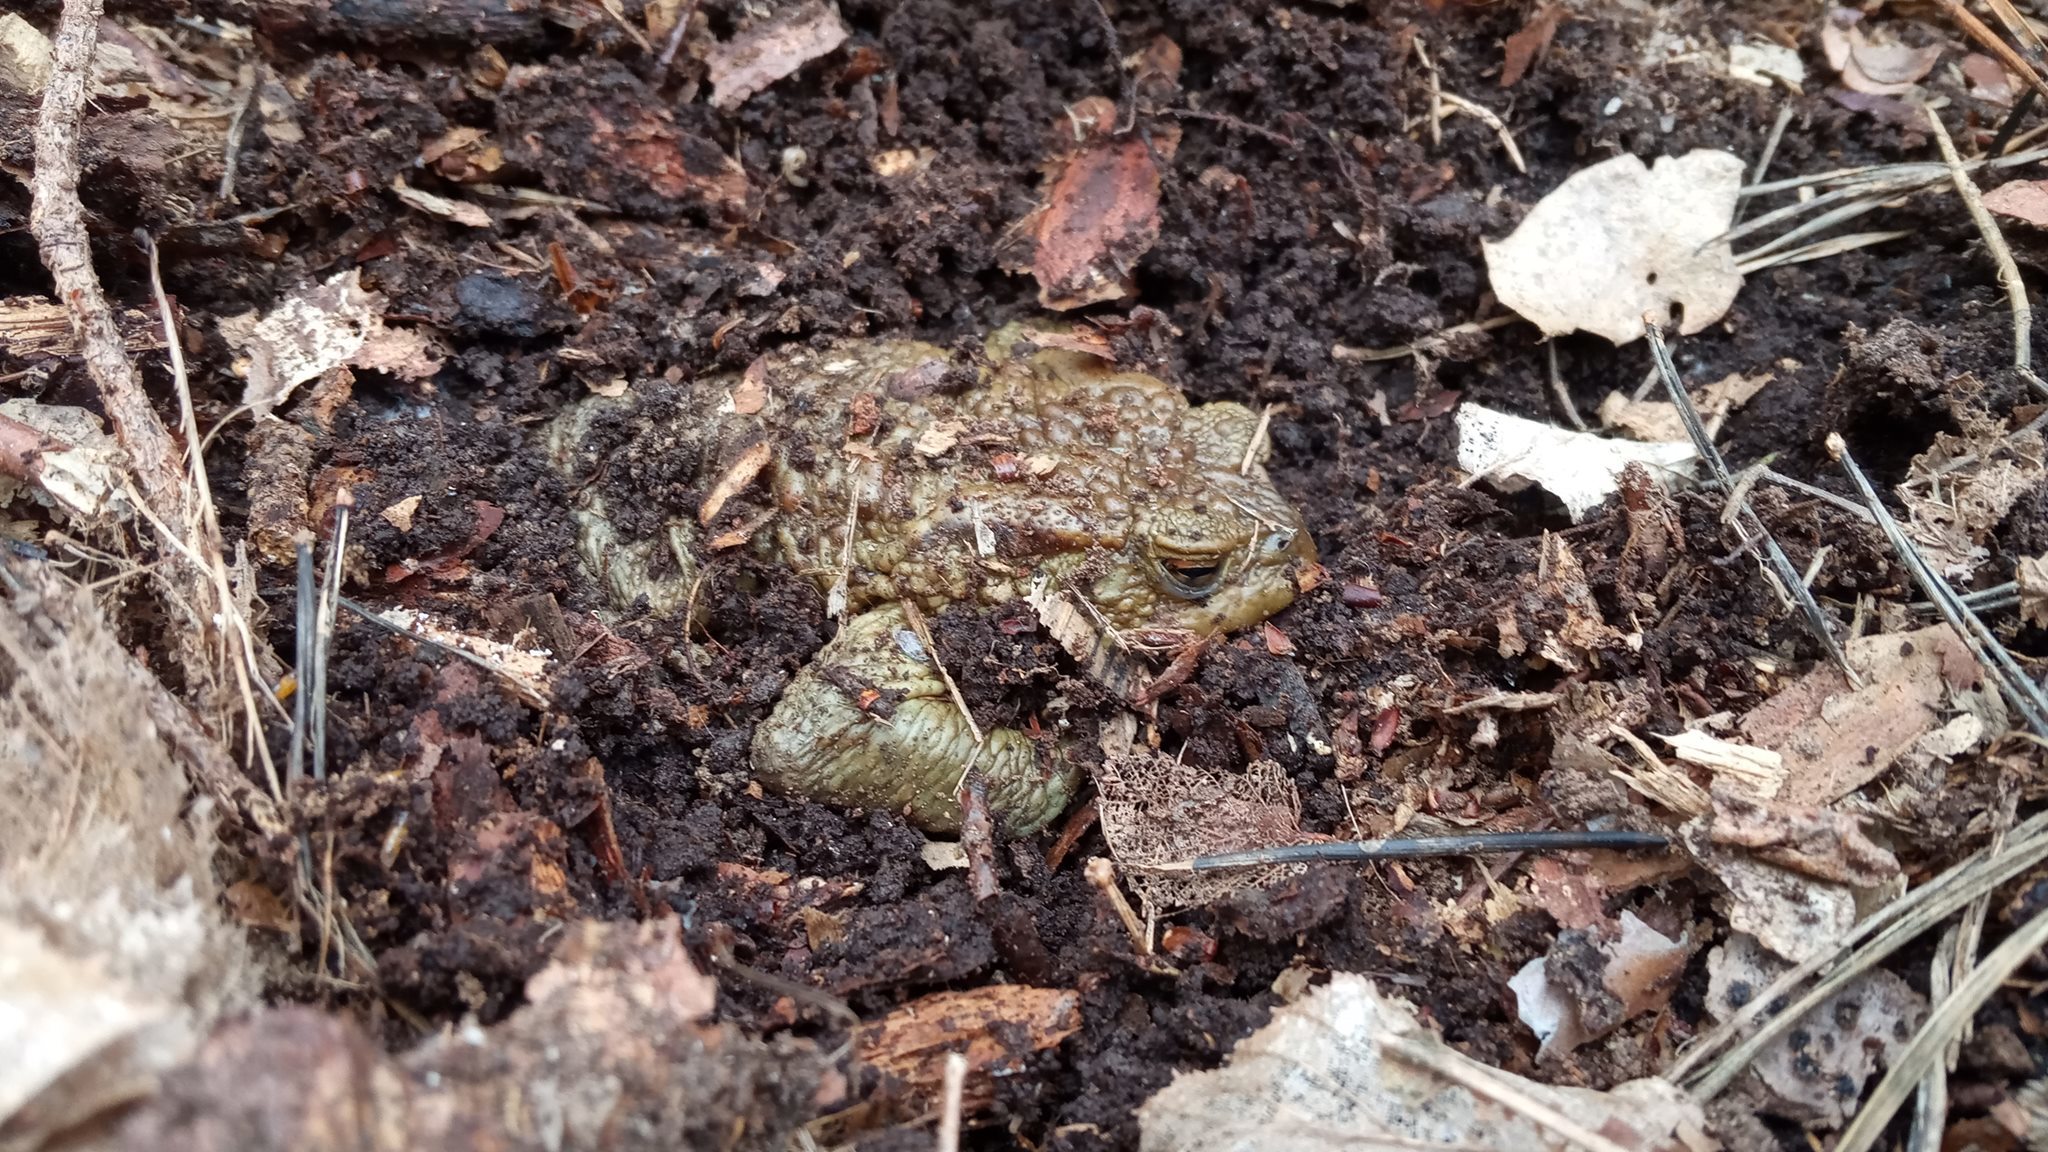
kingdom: Animalia
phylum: Chordata
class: Amphibia
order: Anura
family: Bufonidae
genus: Bufo
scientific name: Bufo bufo
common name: Common toad
